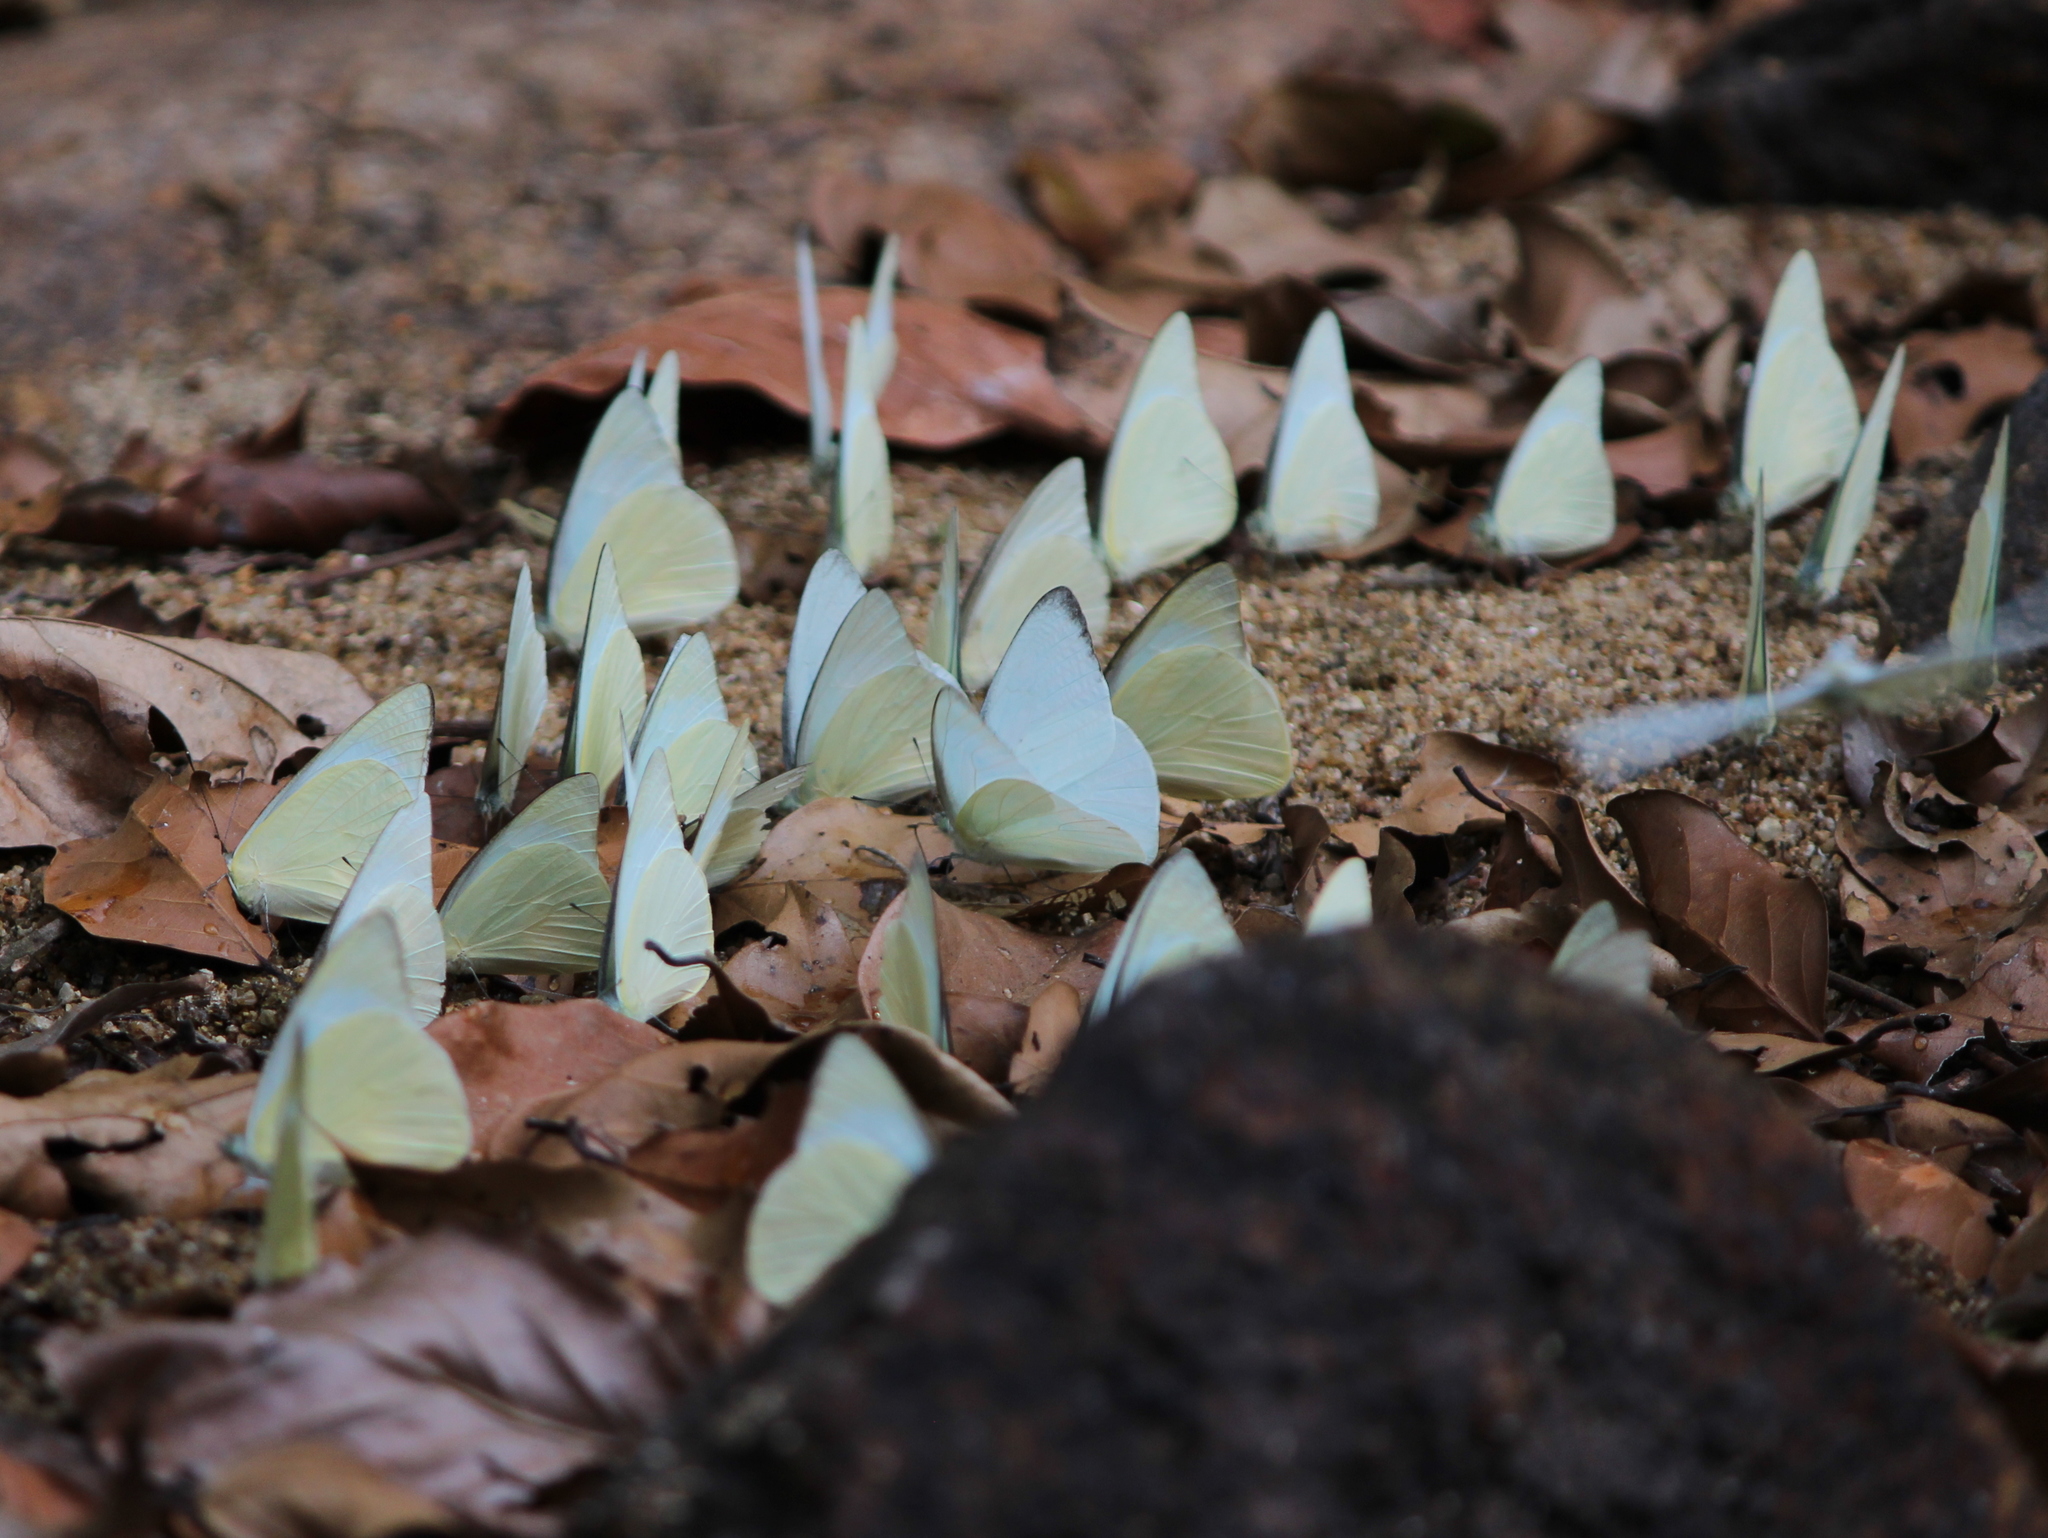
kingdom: Animalia
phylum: Arthropoda
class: Insecta
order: Lepidoptera
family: Pieridae
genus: Appias
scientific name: Appias albina
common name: Common albatross
